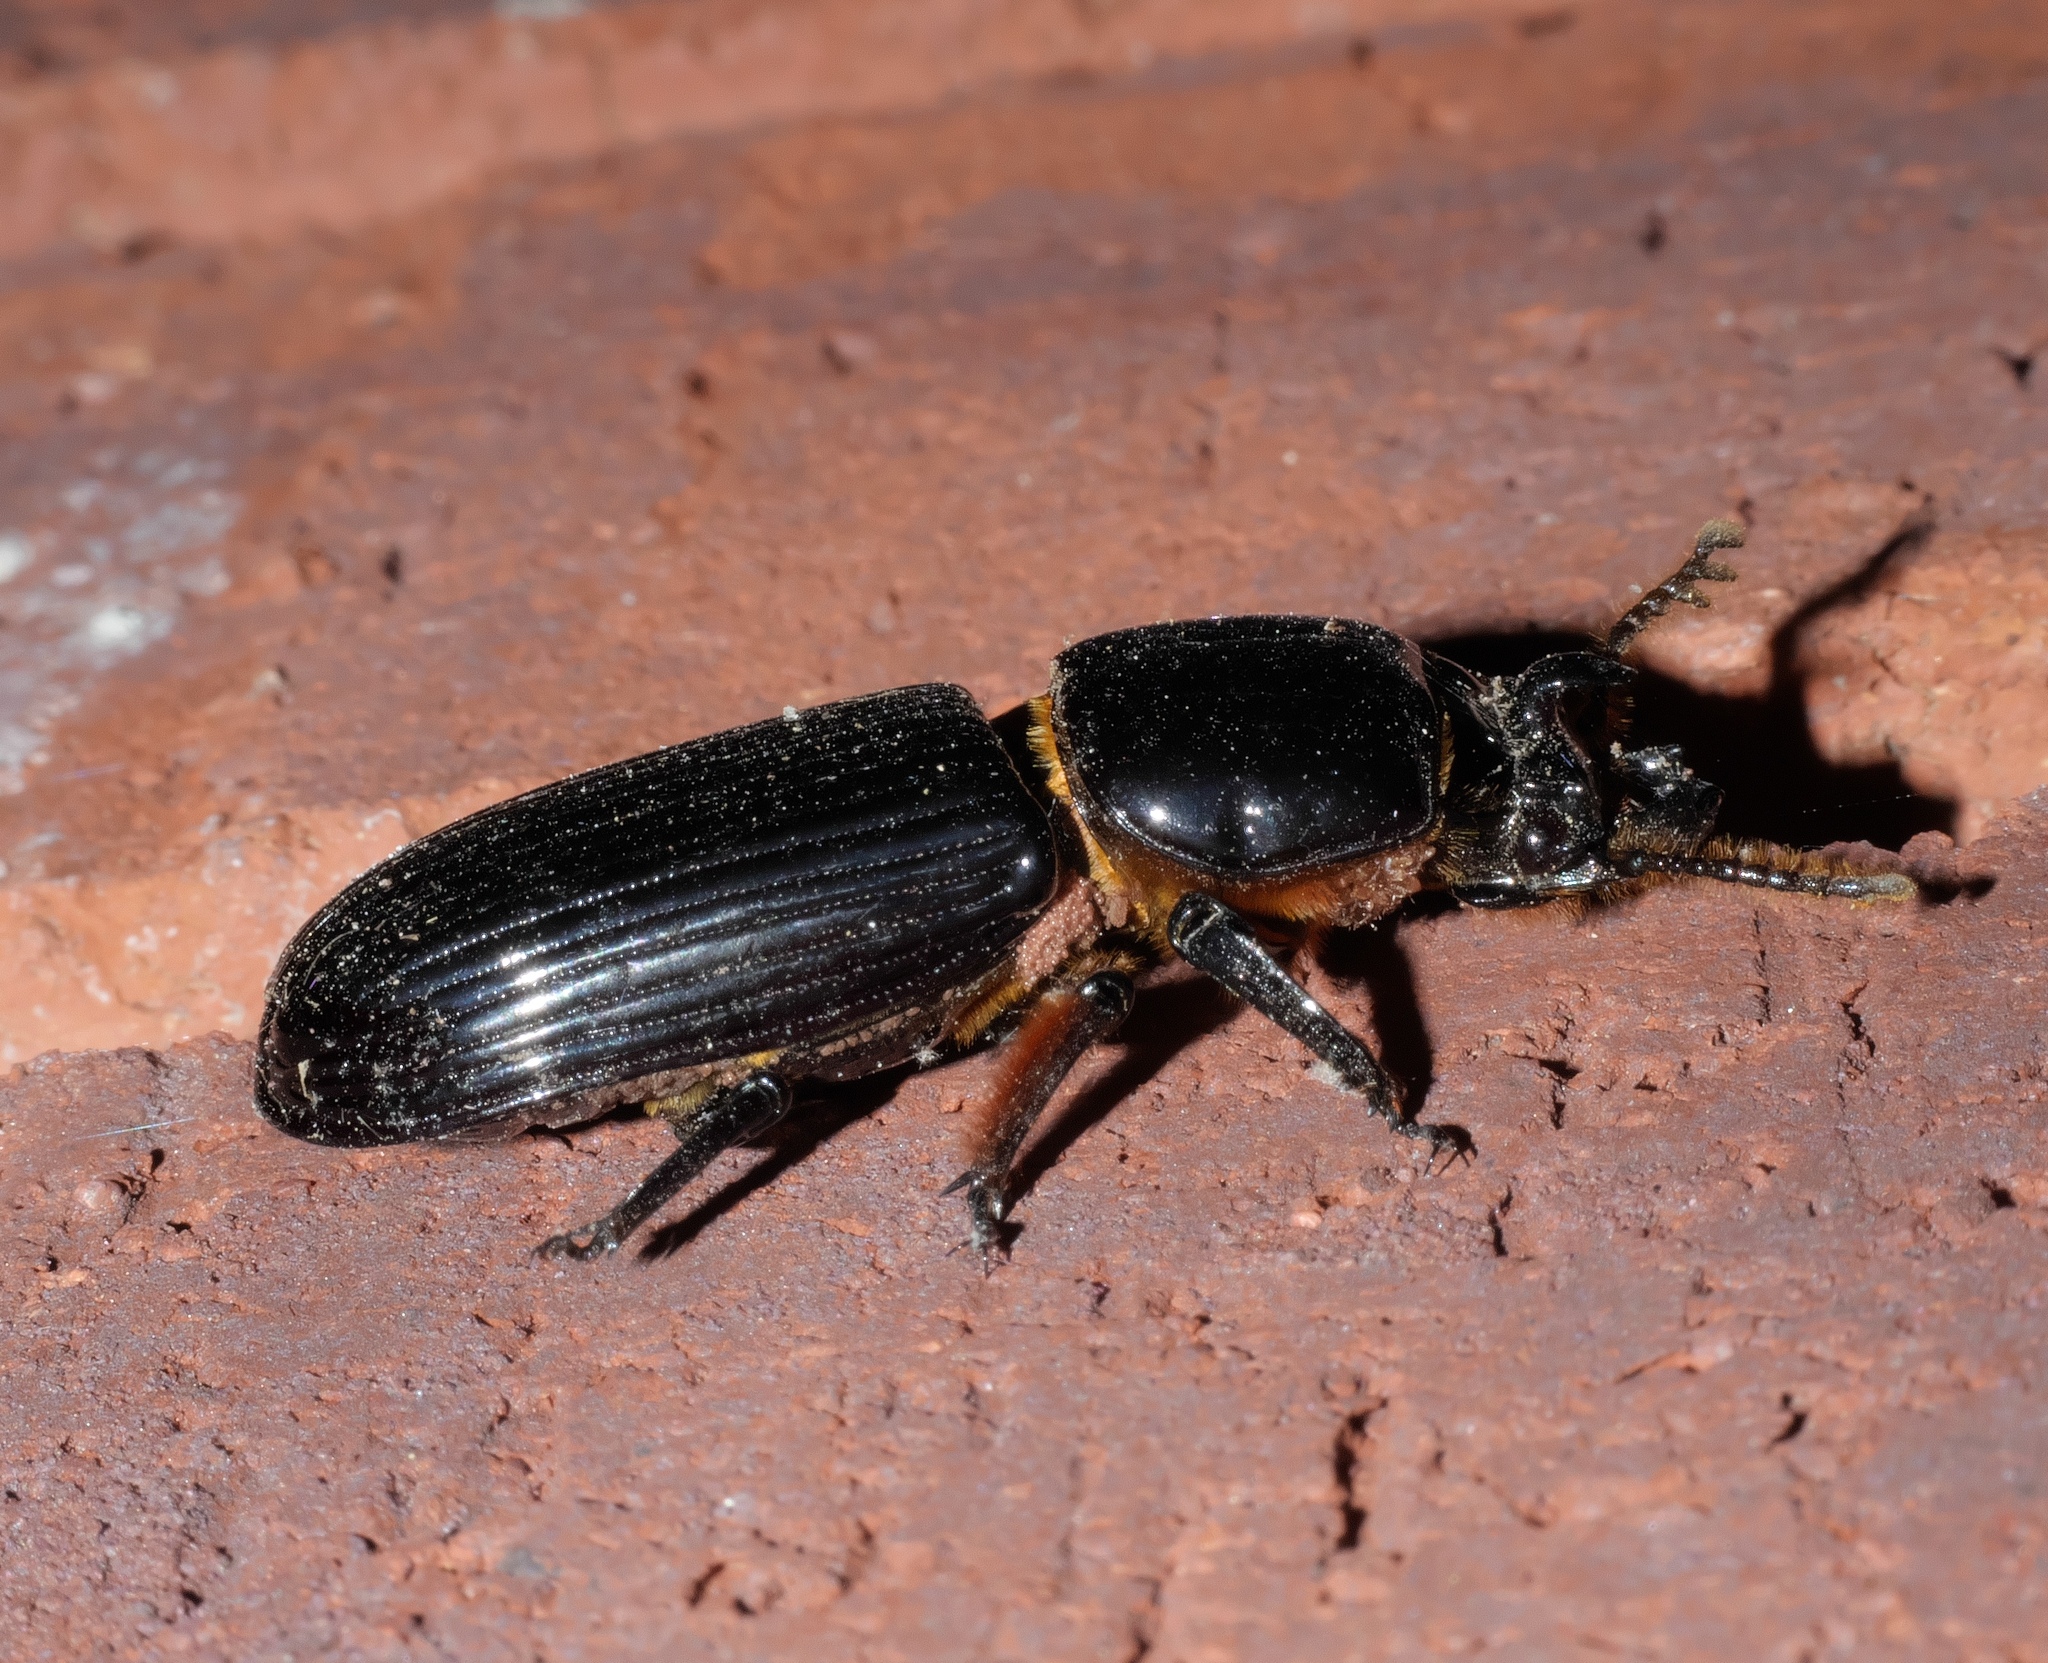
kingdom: Animalia
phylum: Arthropoda
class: Insecta
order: Coleoptera
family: Passalidae
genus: Odontotaenius
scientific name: Odontotaenius disjunctus
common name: Patent leather beetle
